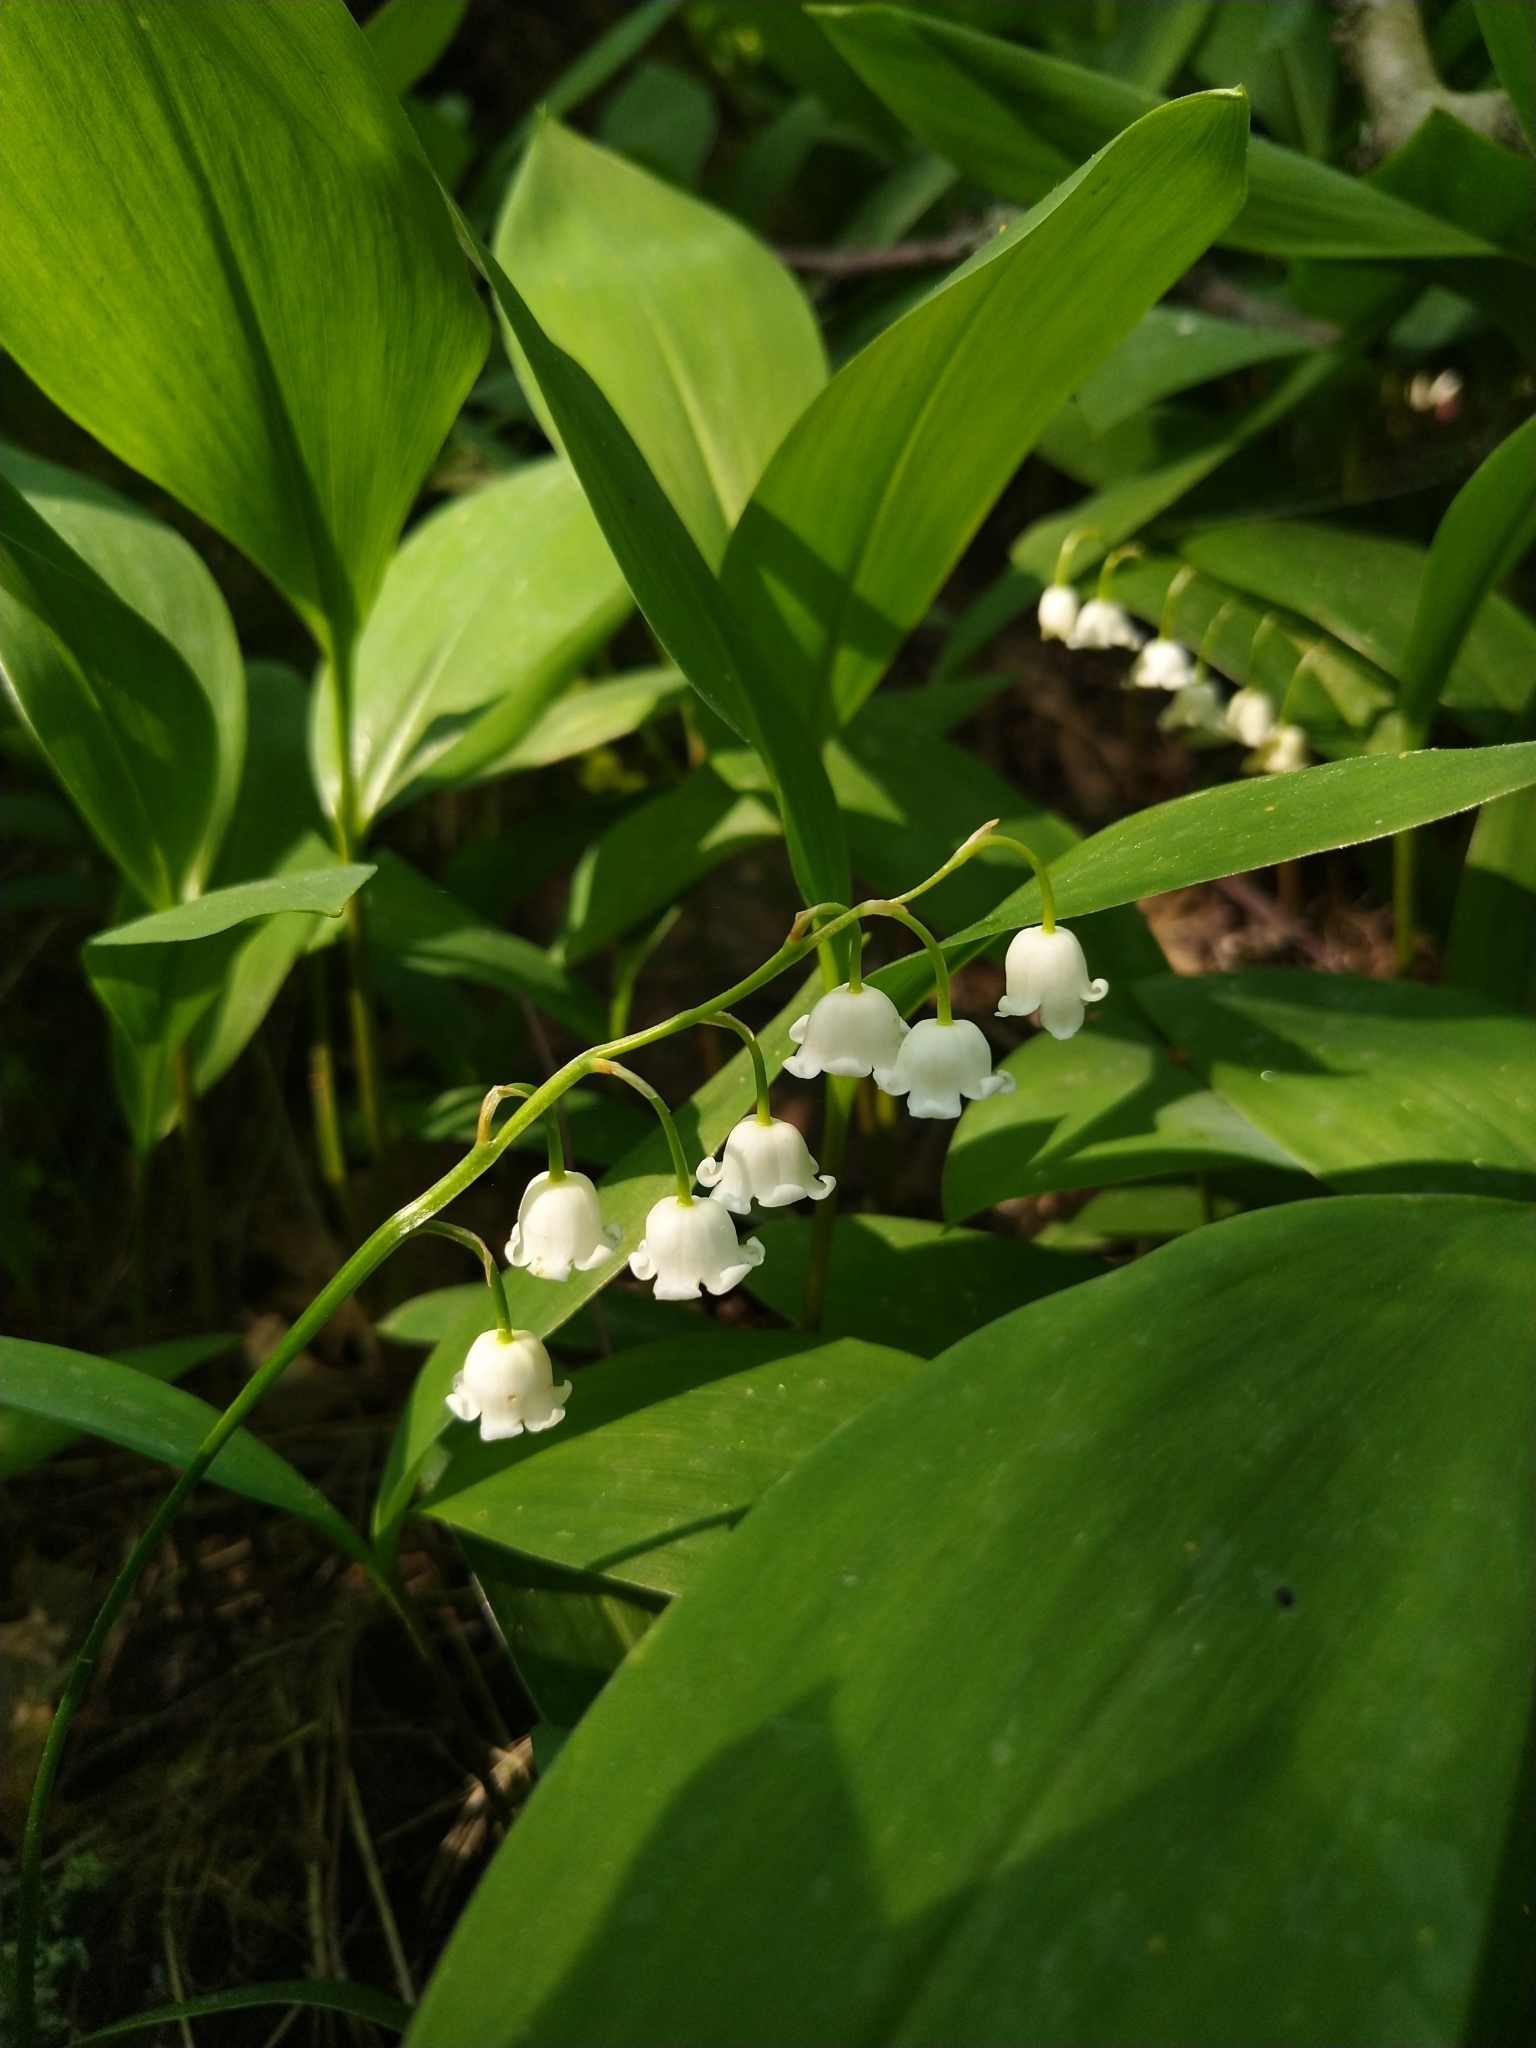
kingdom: Plantae
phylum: Tracheophyta
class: Liliopsida
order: Asparagales
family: Asparagaceae
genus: Convallaria
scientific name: Convallaria majalis
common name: Lily-of-the-valley
